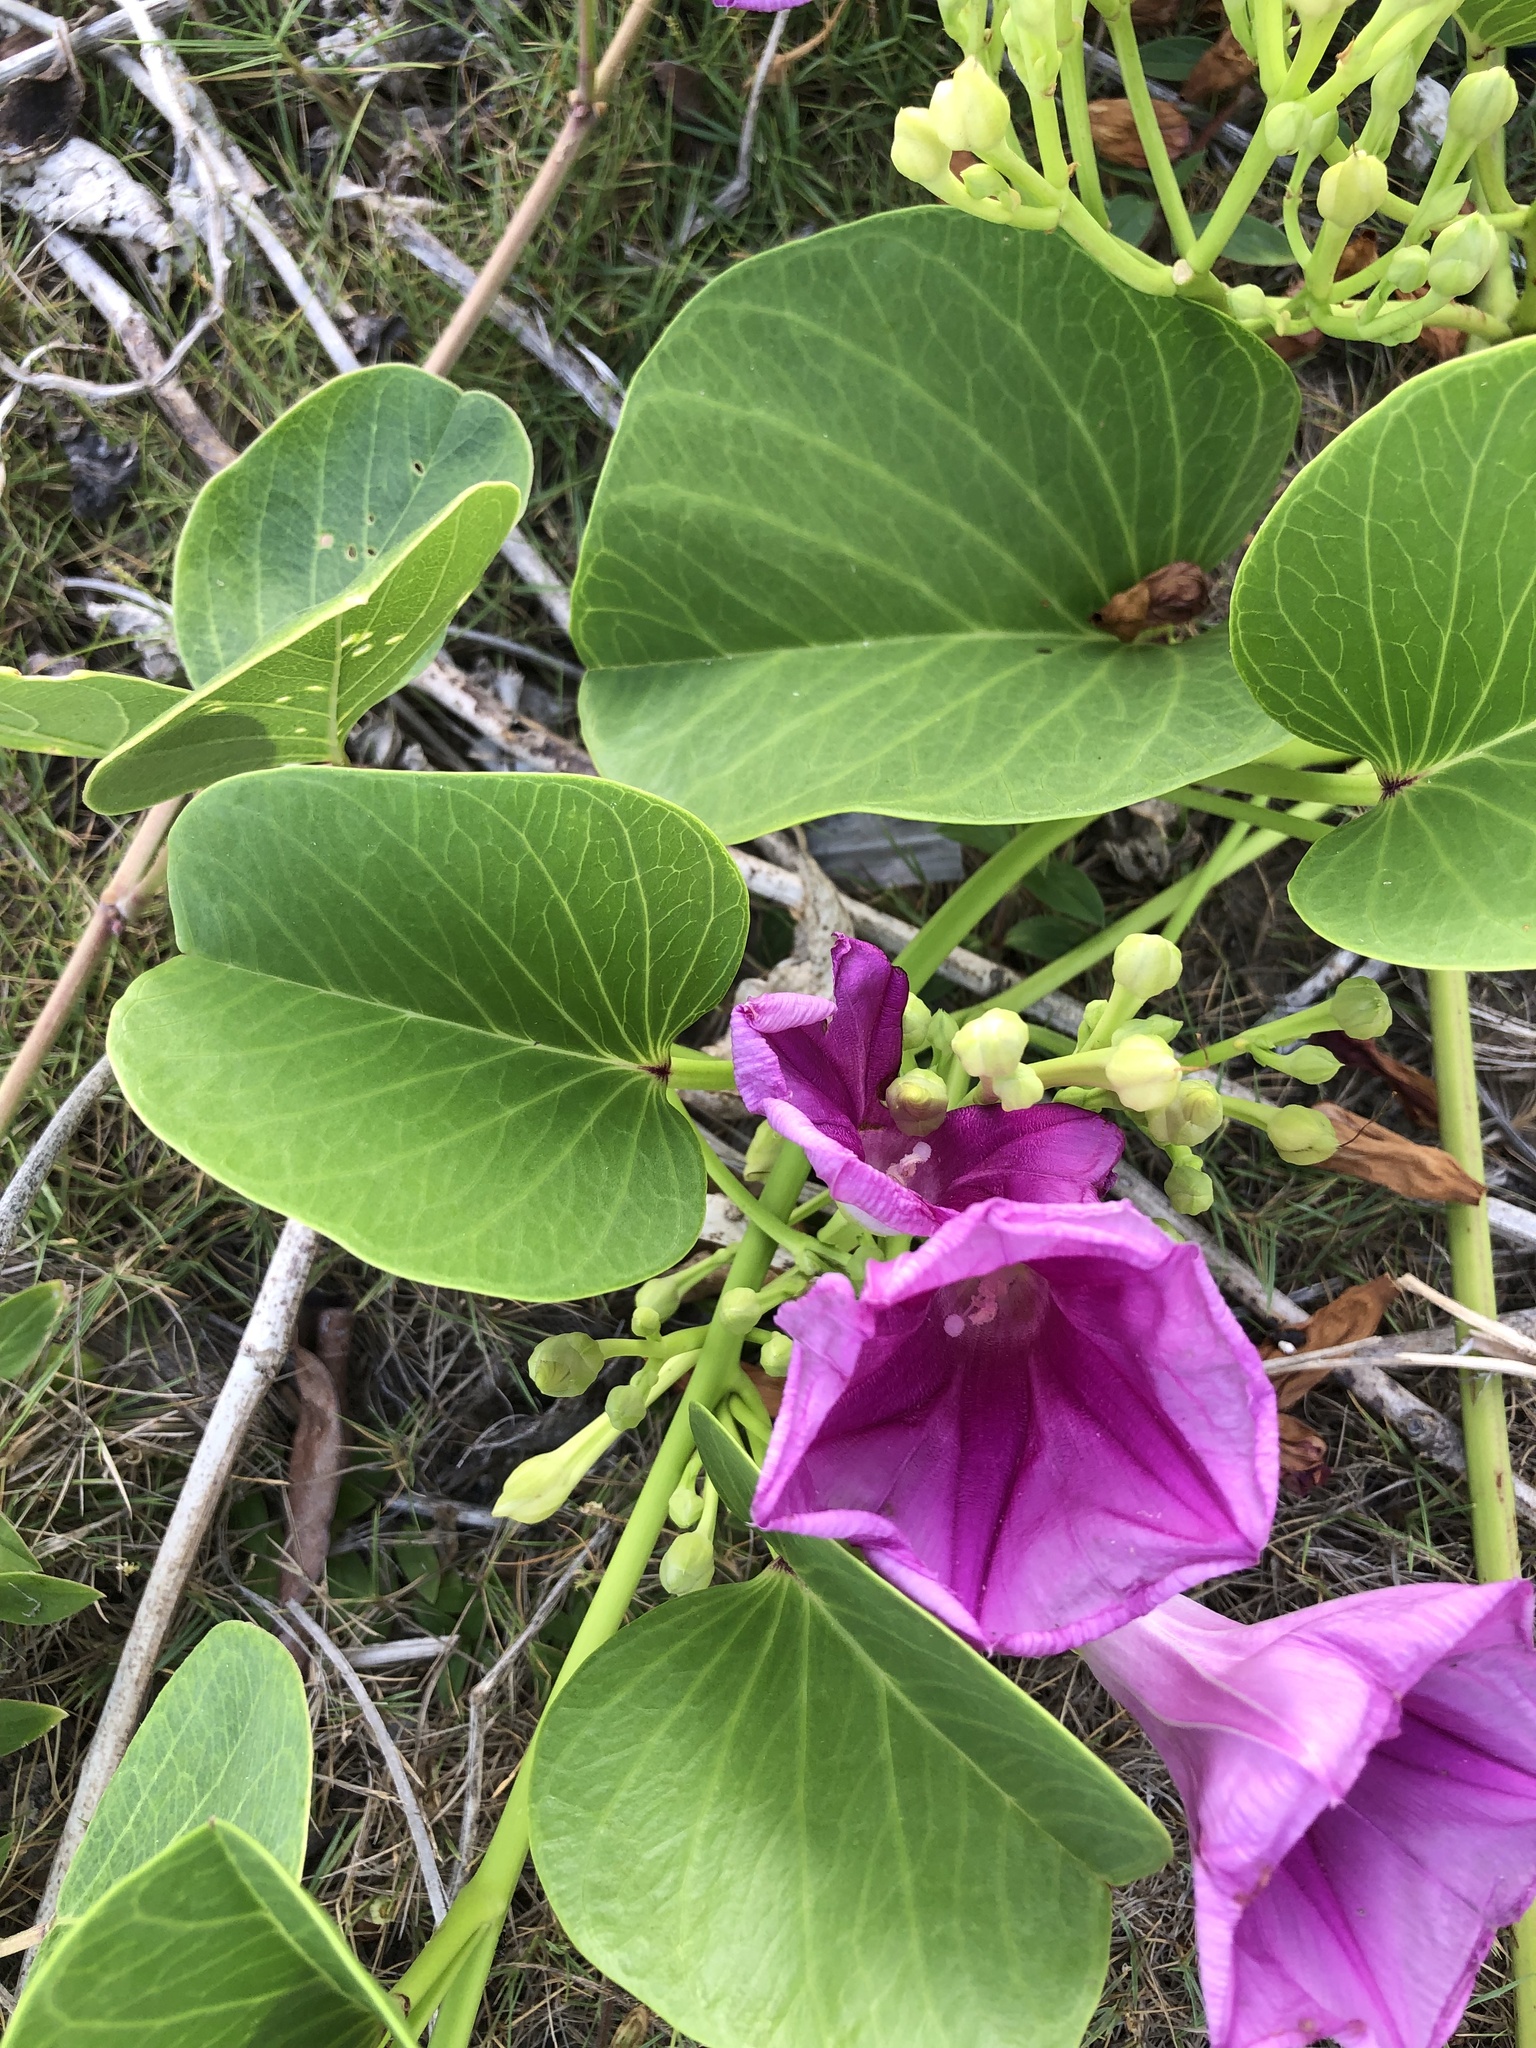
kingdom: Plantae
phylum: Tracheophyta
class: Magnoliopsida
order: Solanales
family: Convolvulaceae
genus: Ipomoea
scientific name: Ipomoea pes-caprae
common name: Beach morning glory
